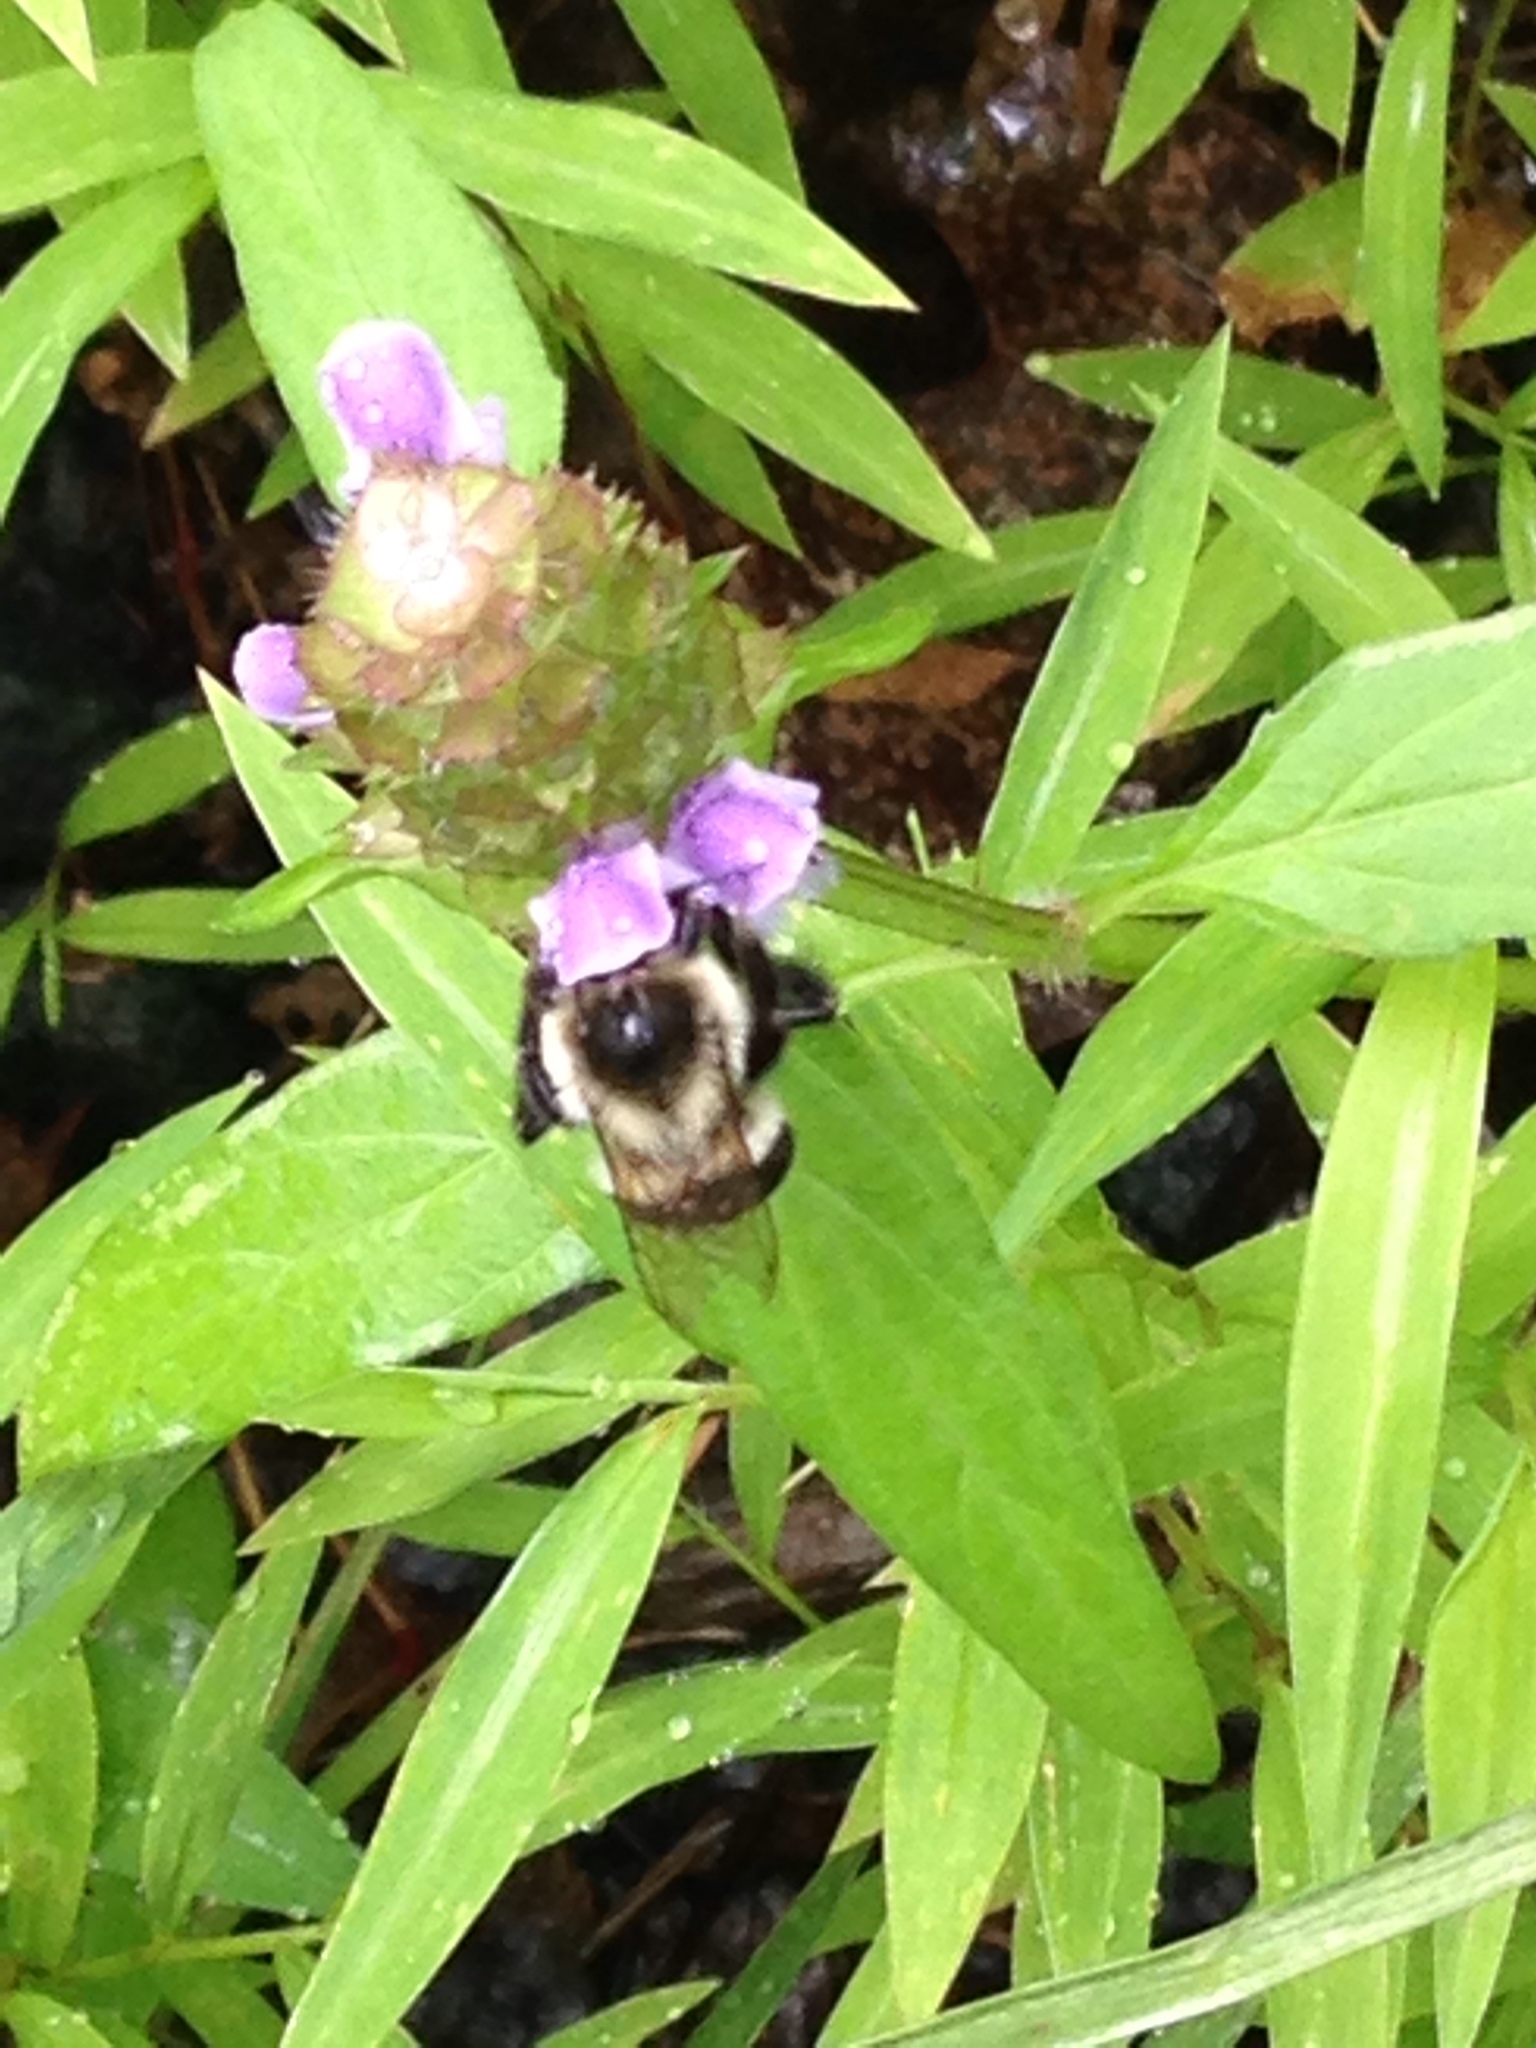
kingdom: Animalia
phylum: Arthropoda
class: Insecta
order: Hymenoptera
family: Apidae
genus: Bombus
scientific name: Bombus impatiens
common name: Common eastern bumble bee
